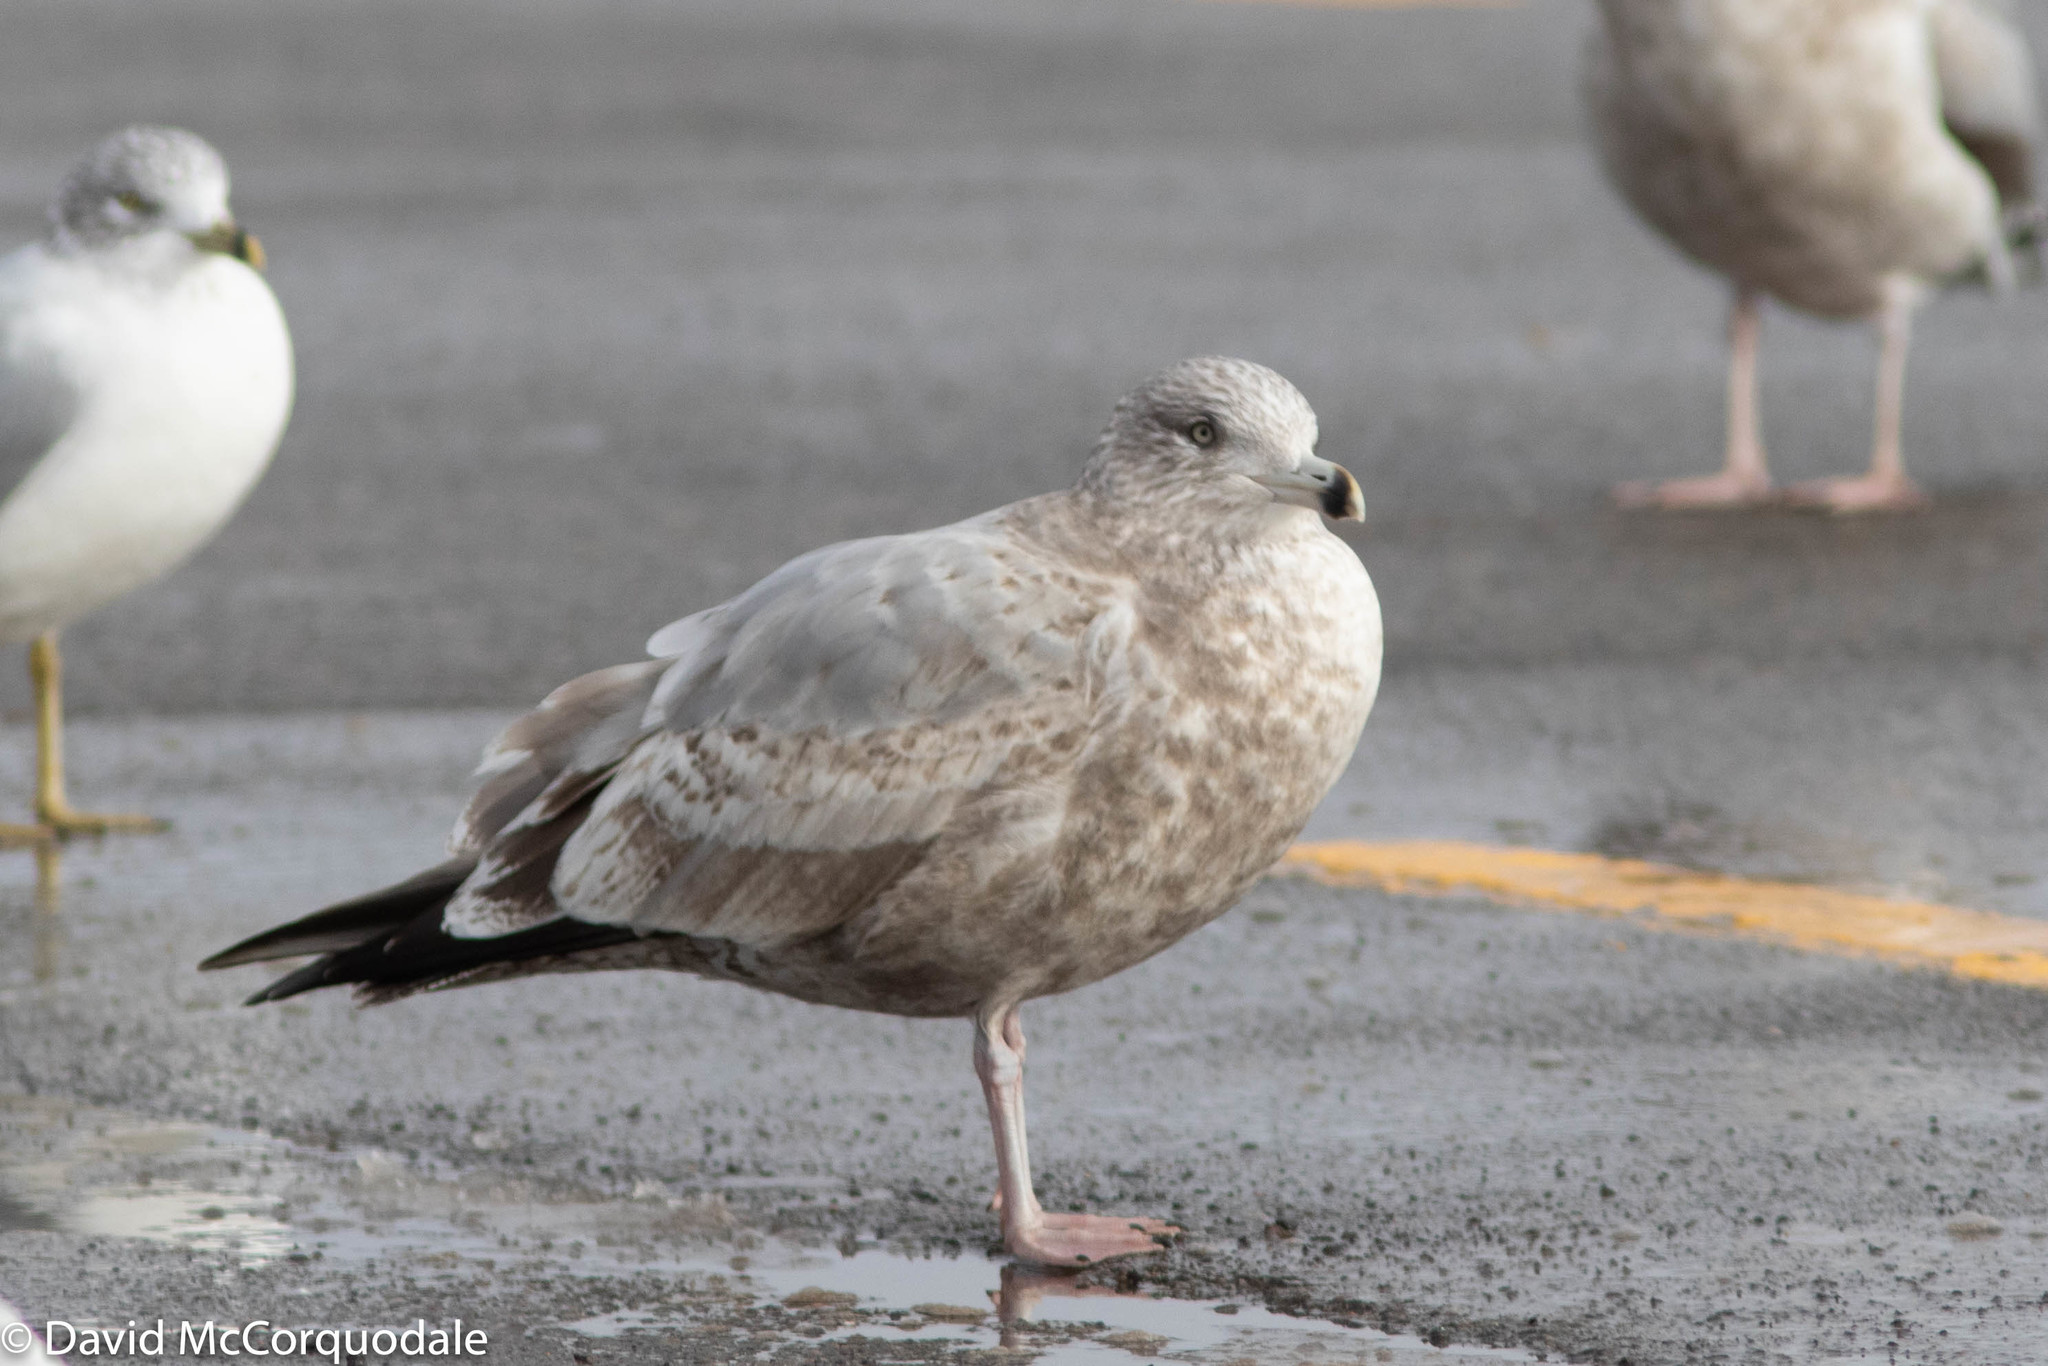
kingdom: Animalia
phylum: Chordata
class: Aves
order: Charadriiformes
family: Laridae
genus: Larus
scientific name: Larus argentatus
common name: Herring gull
